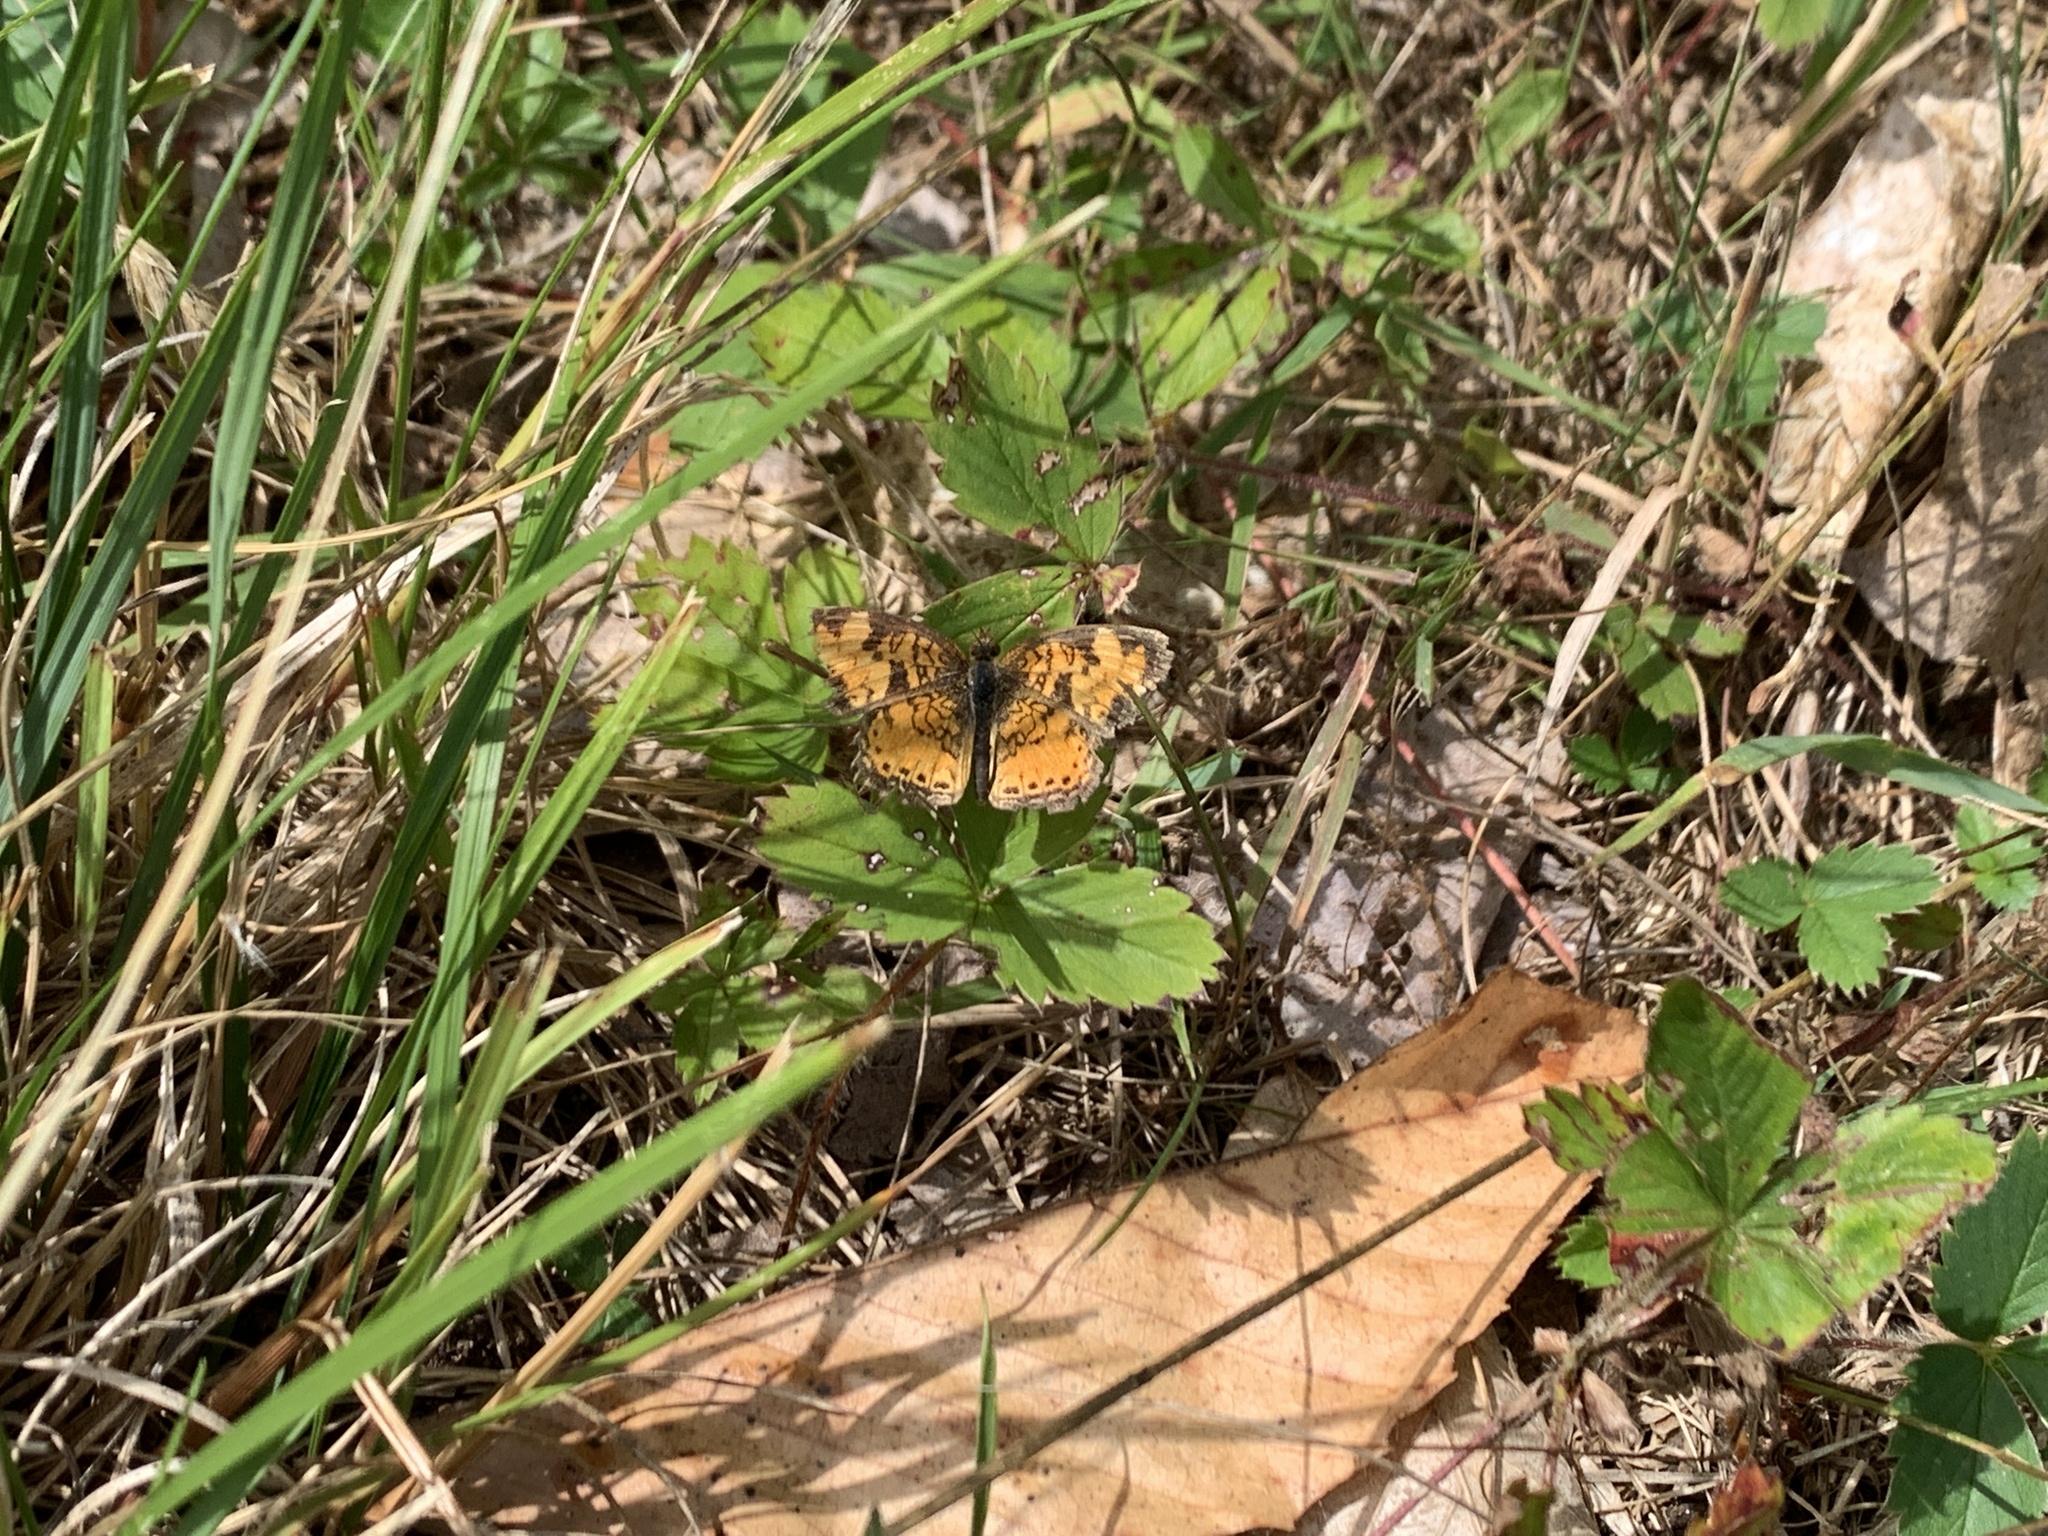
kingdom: Animalia
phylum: Arthropoda
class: Insecta
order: Lepidoptera
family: Nymphalidae
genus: Phyciodes
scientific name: Phyciodes tharos
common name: Pearl crescent
